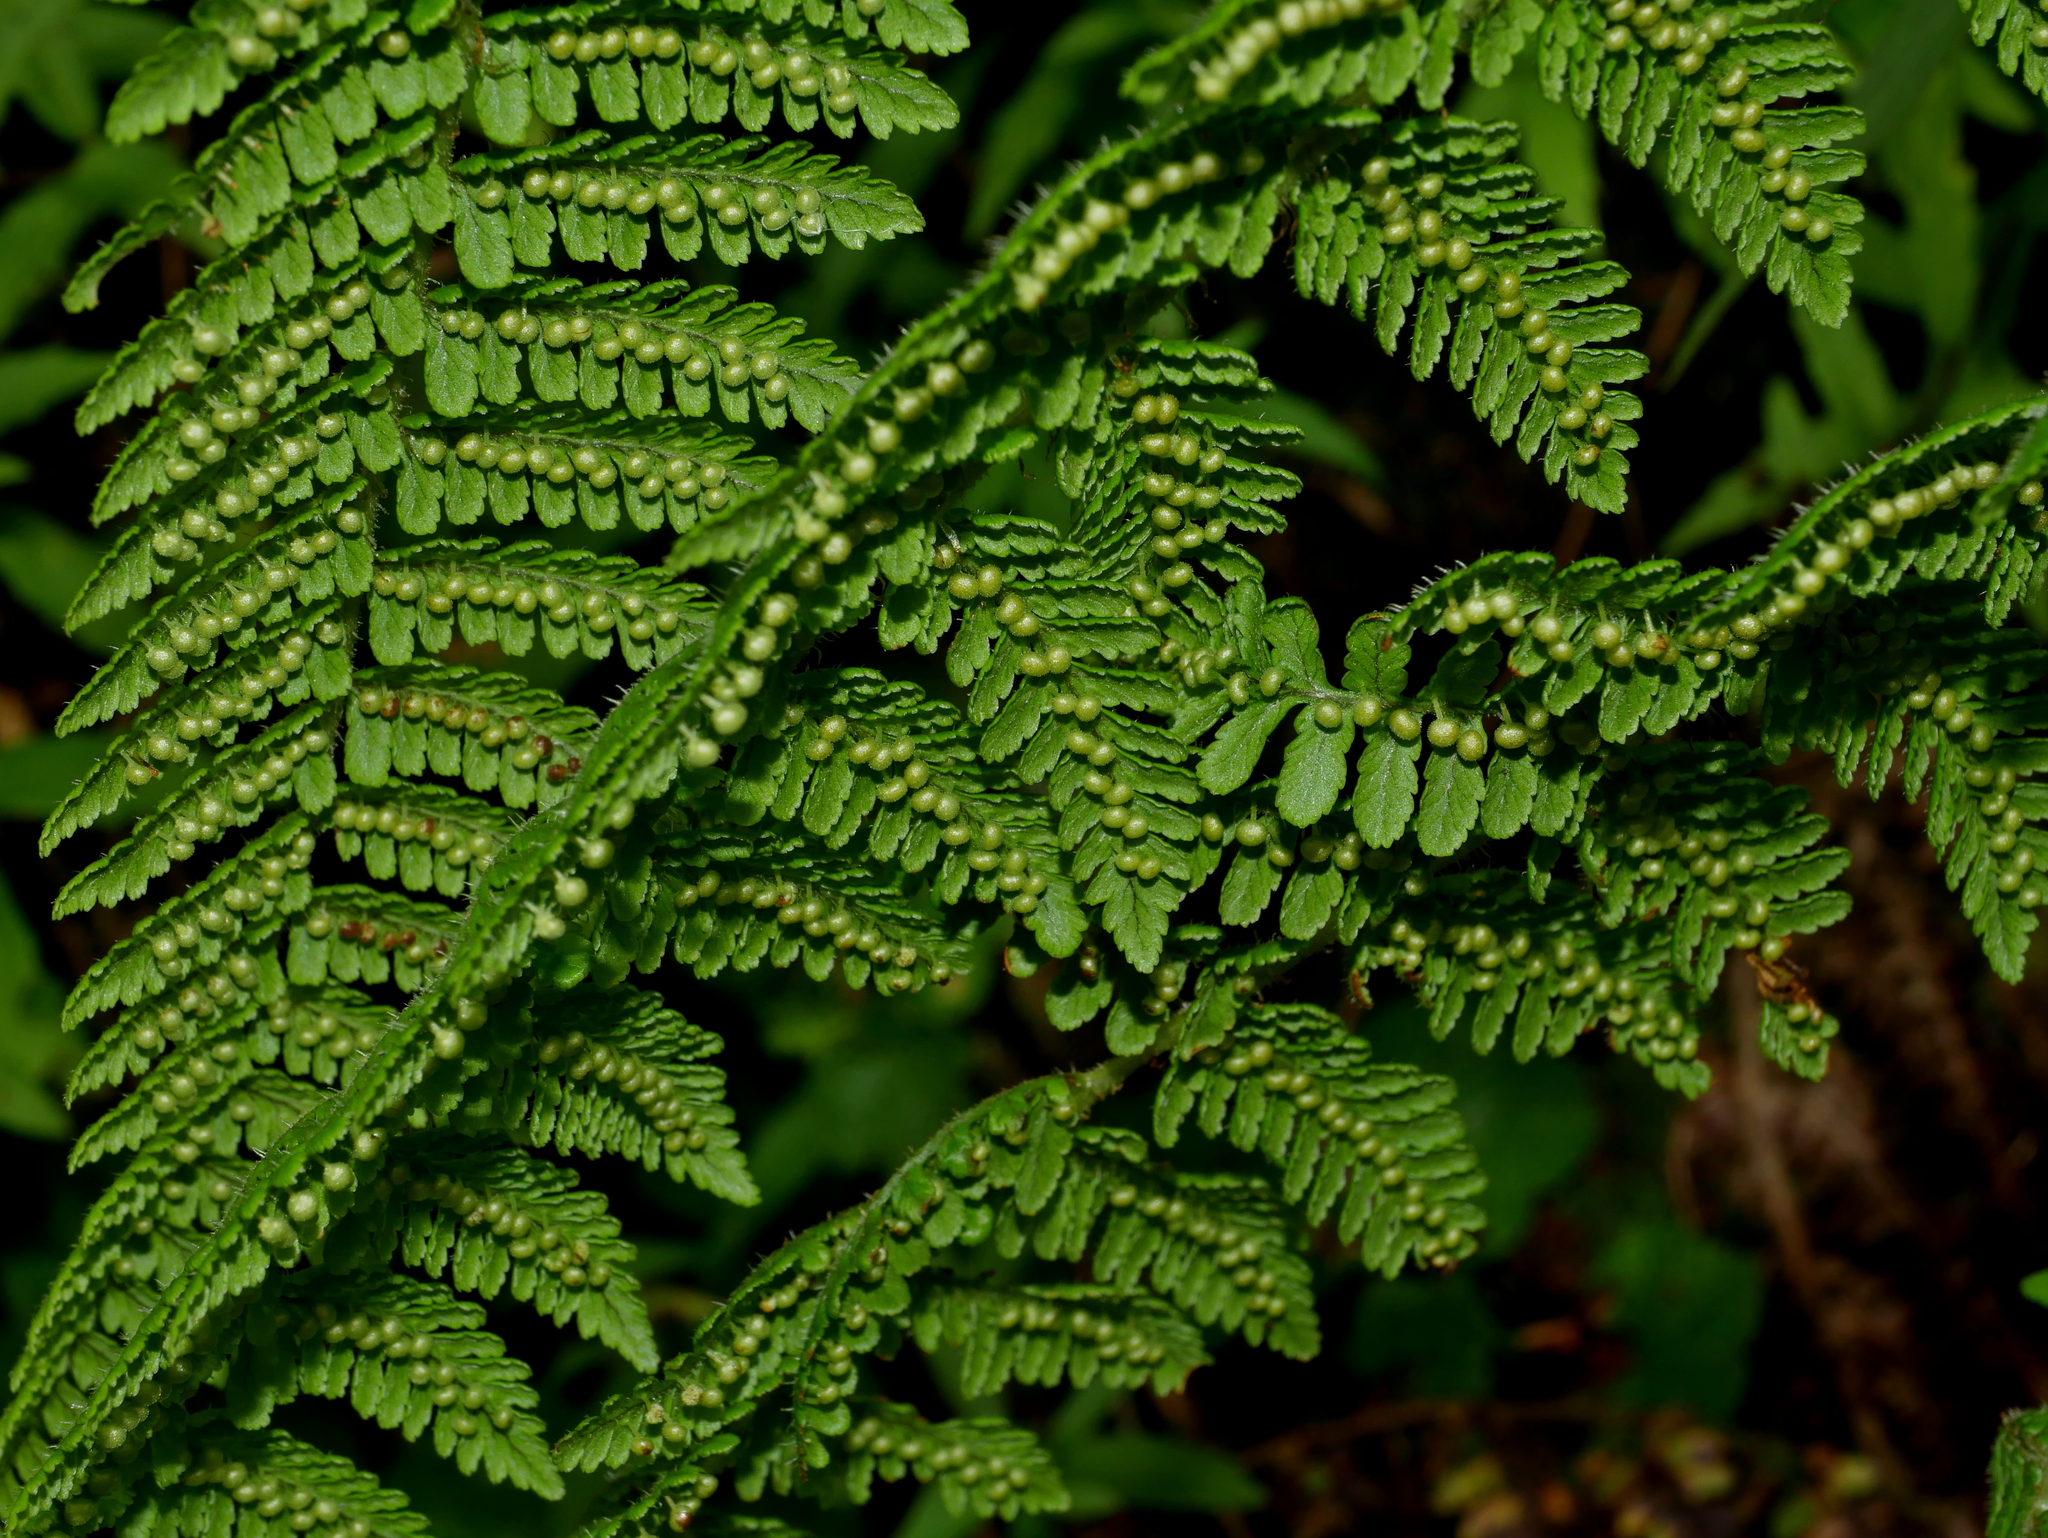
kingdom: Plantae
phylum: Tracheophyta
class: Polypodiopsida
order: Polypodiales
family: Dryopteridaceae
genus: Dryopteris
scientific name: Dryopteris peranema
